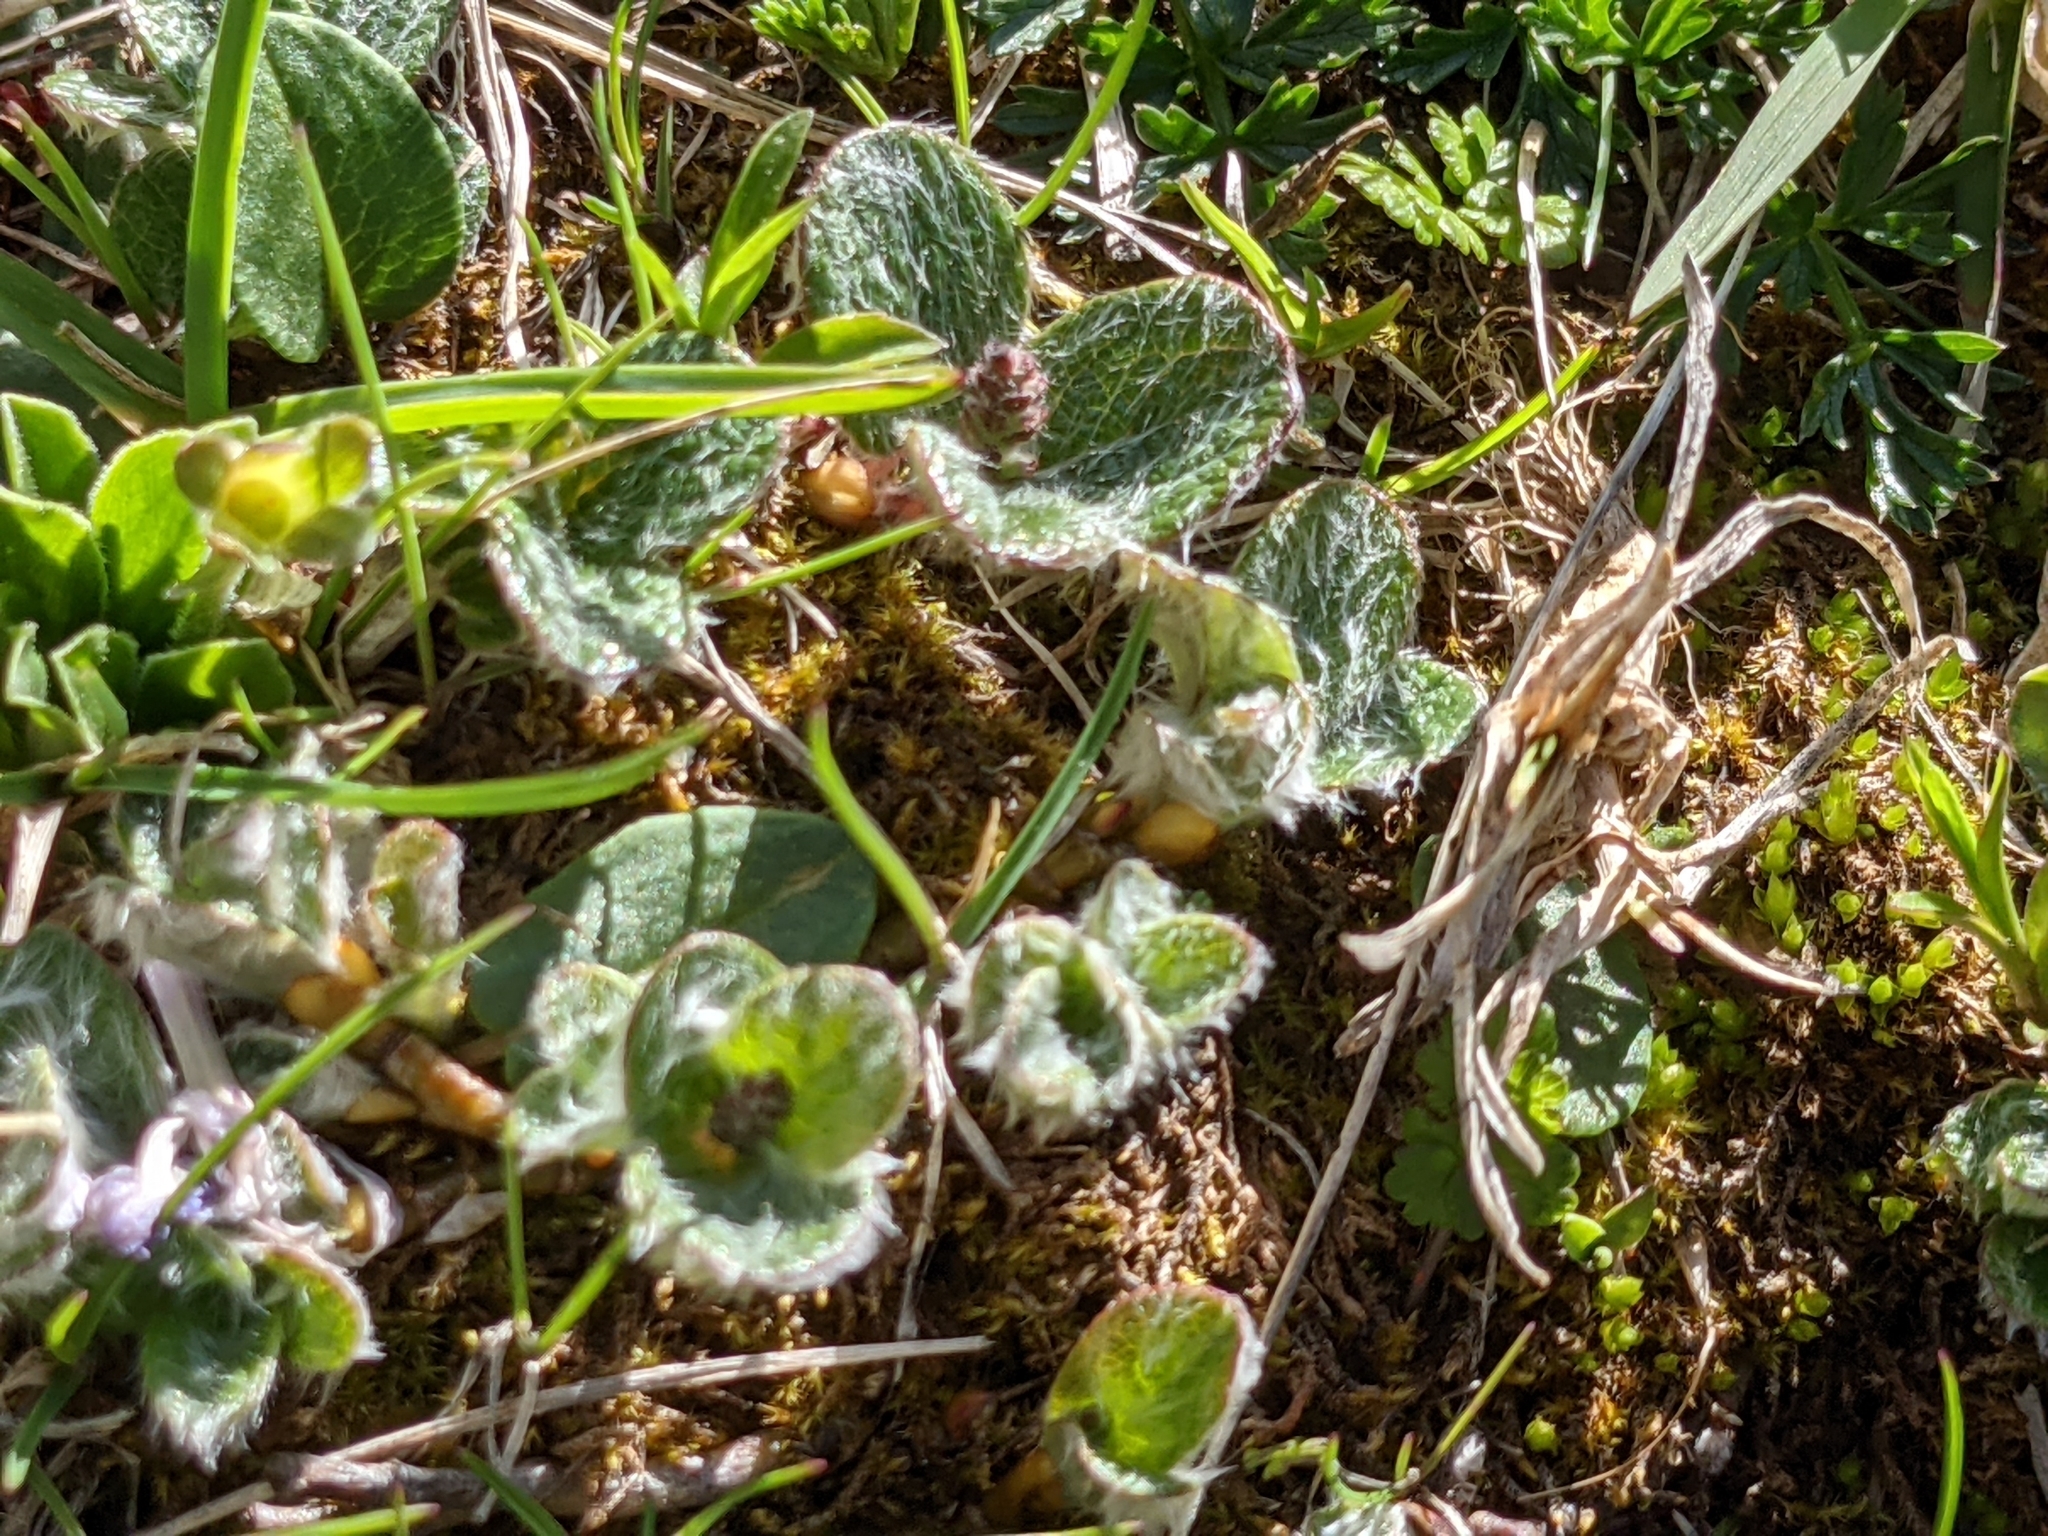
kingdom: Plantae
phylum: Tracheophyta
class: Magnoliopsida
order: Malpighiales
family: Salicaceae
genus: Salix
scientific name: Salix reticulata
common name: Net-leaved willow
